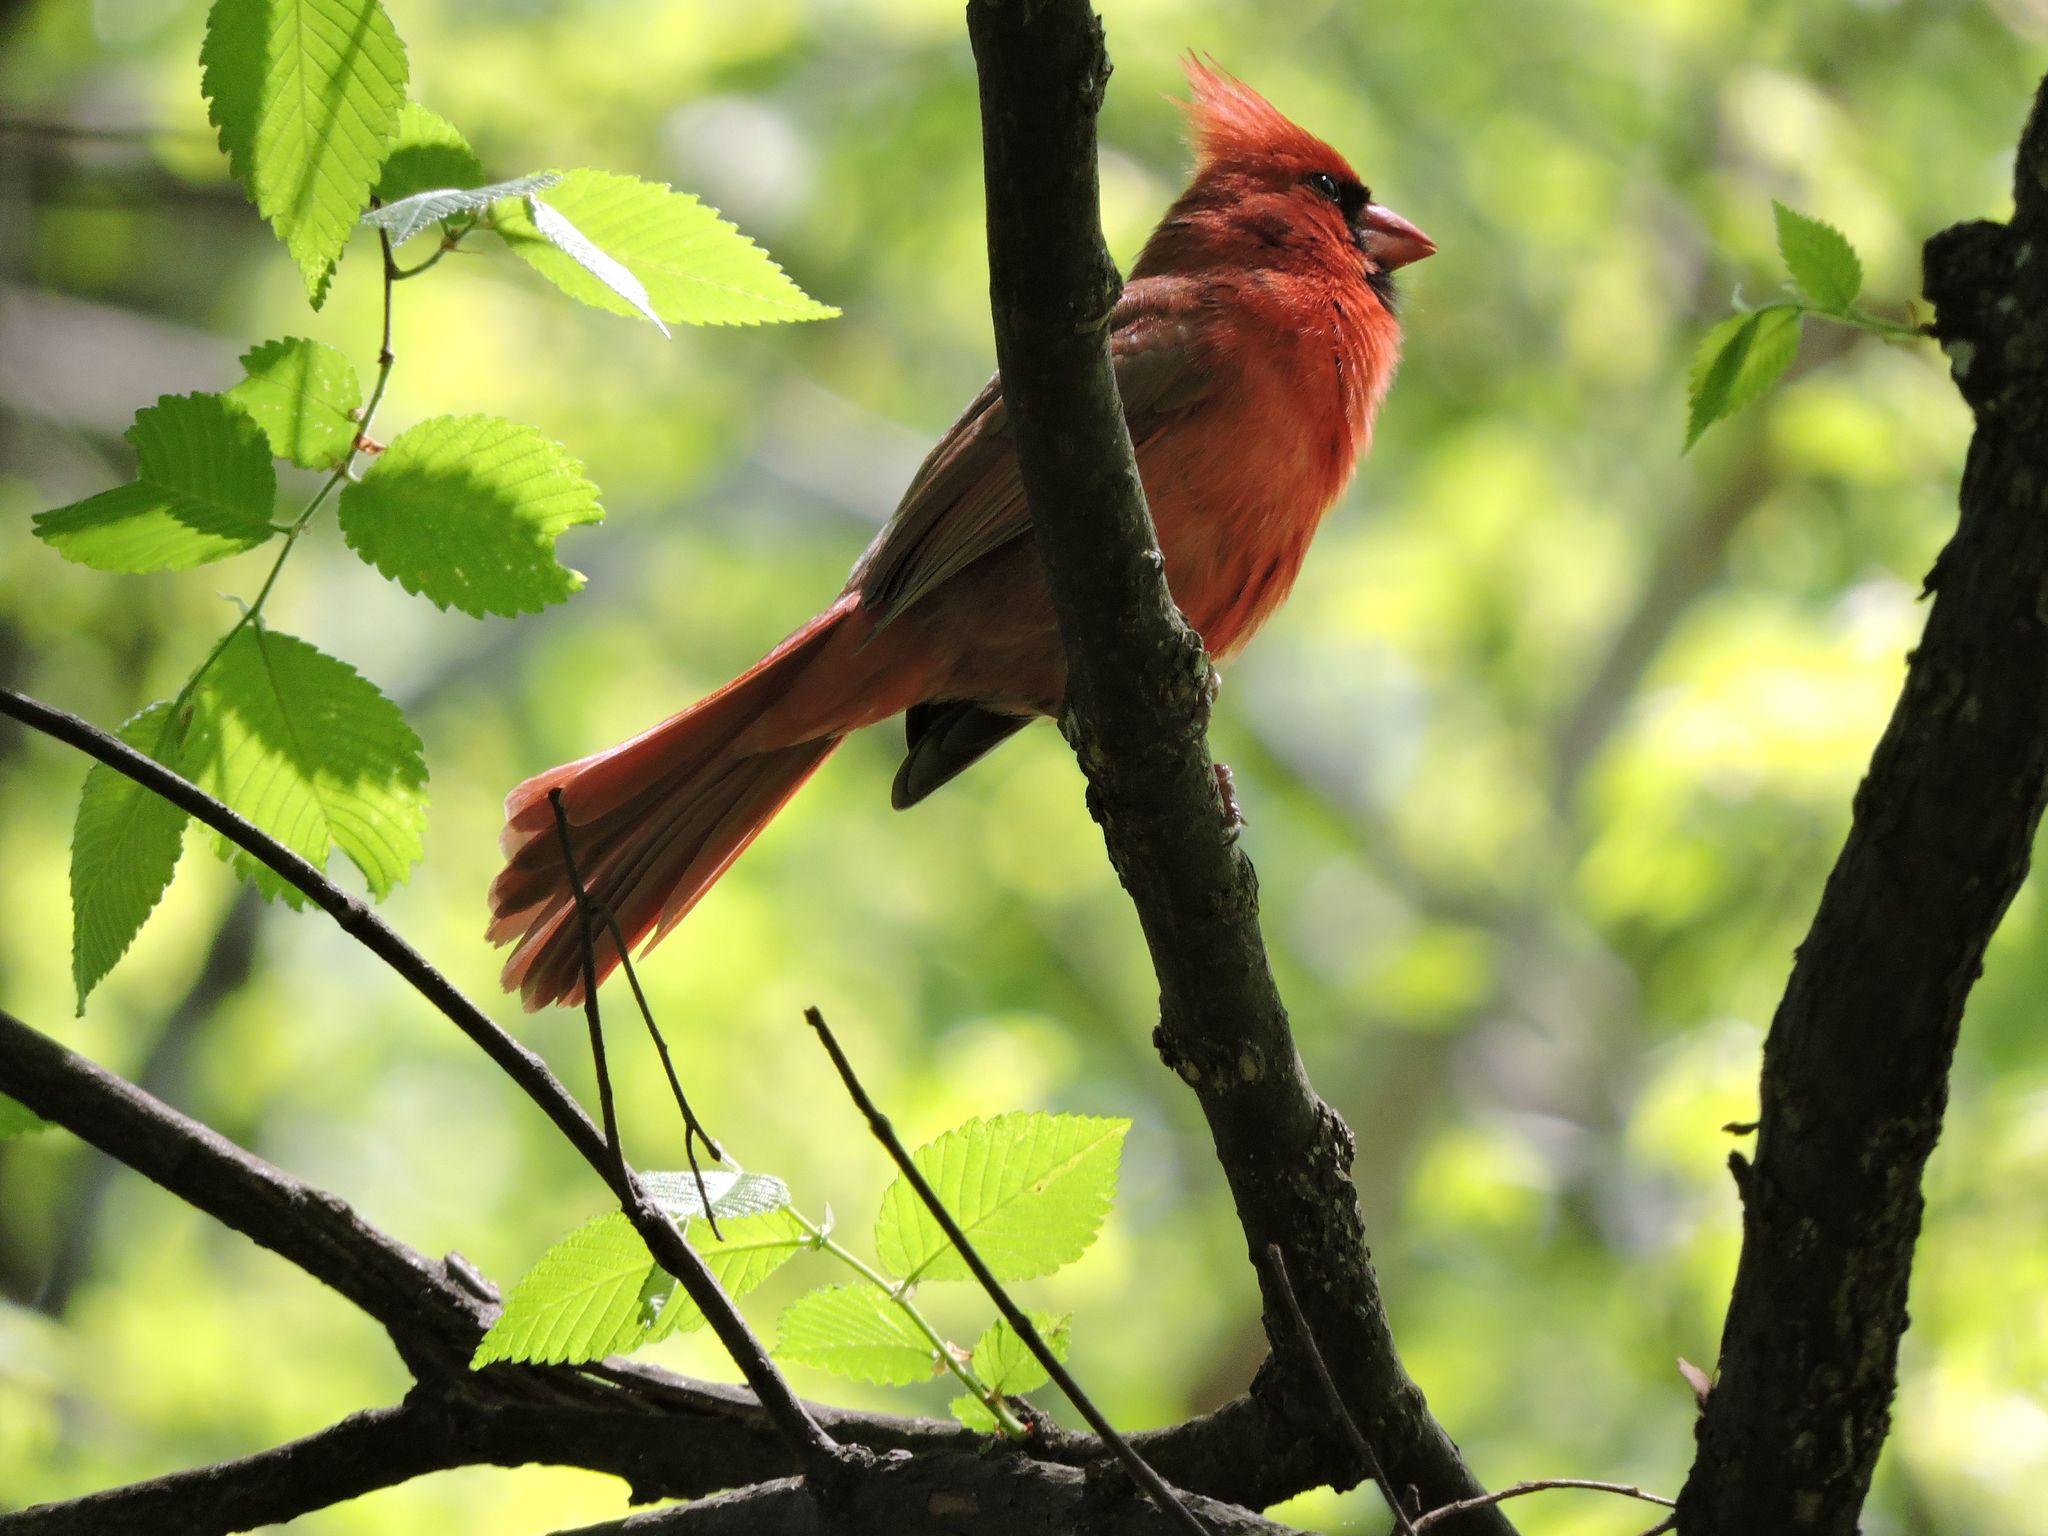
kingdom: Animalia
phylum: Chordata
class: Aves
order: Passeriformes
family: Cardinalidae
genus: Cardinalis
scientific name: Cardinalis cardinalis
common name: Northern cardinal
